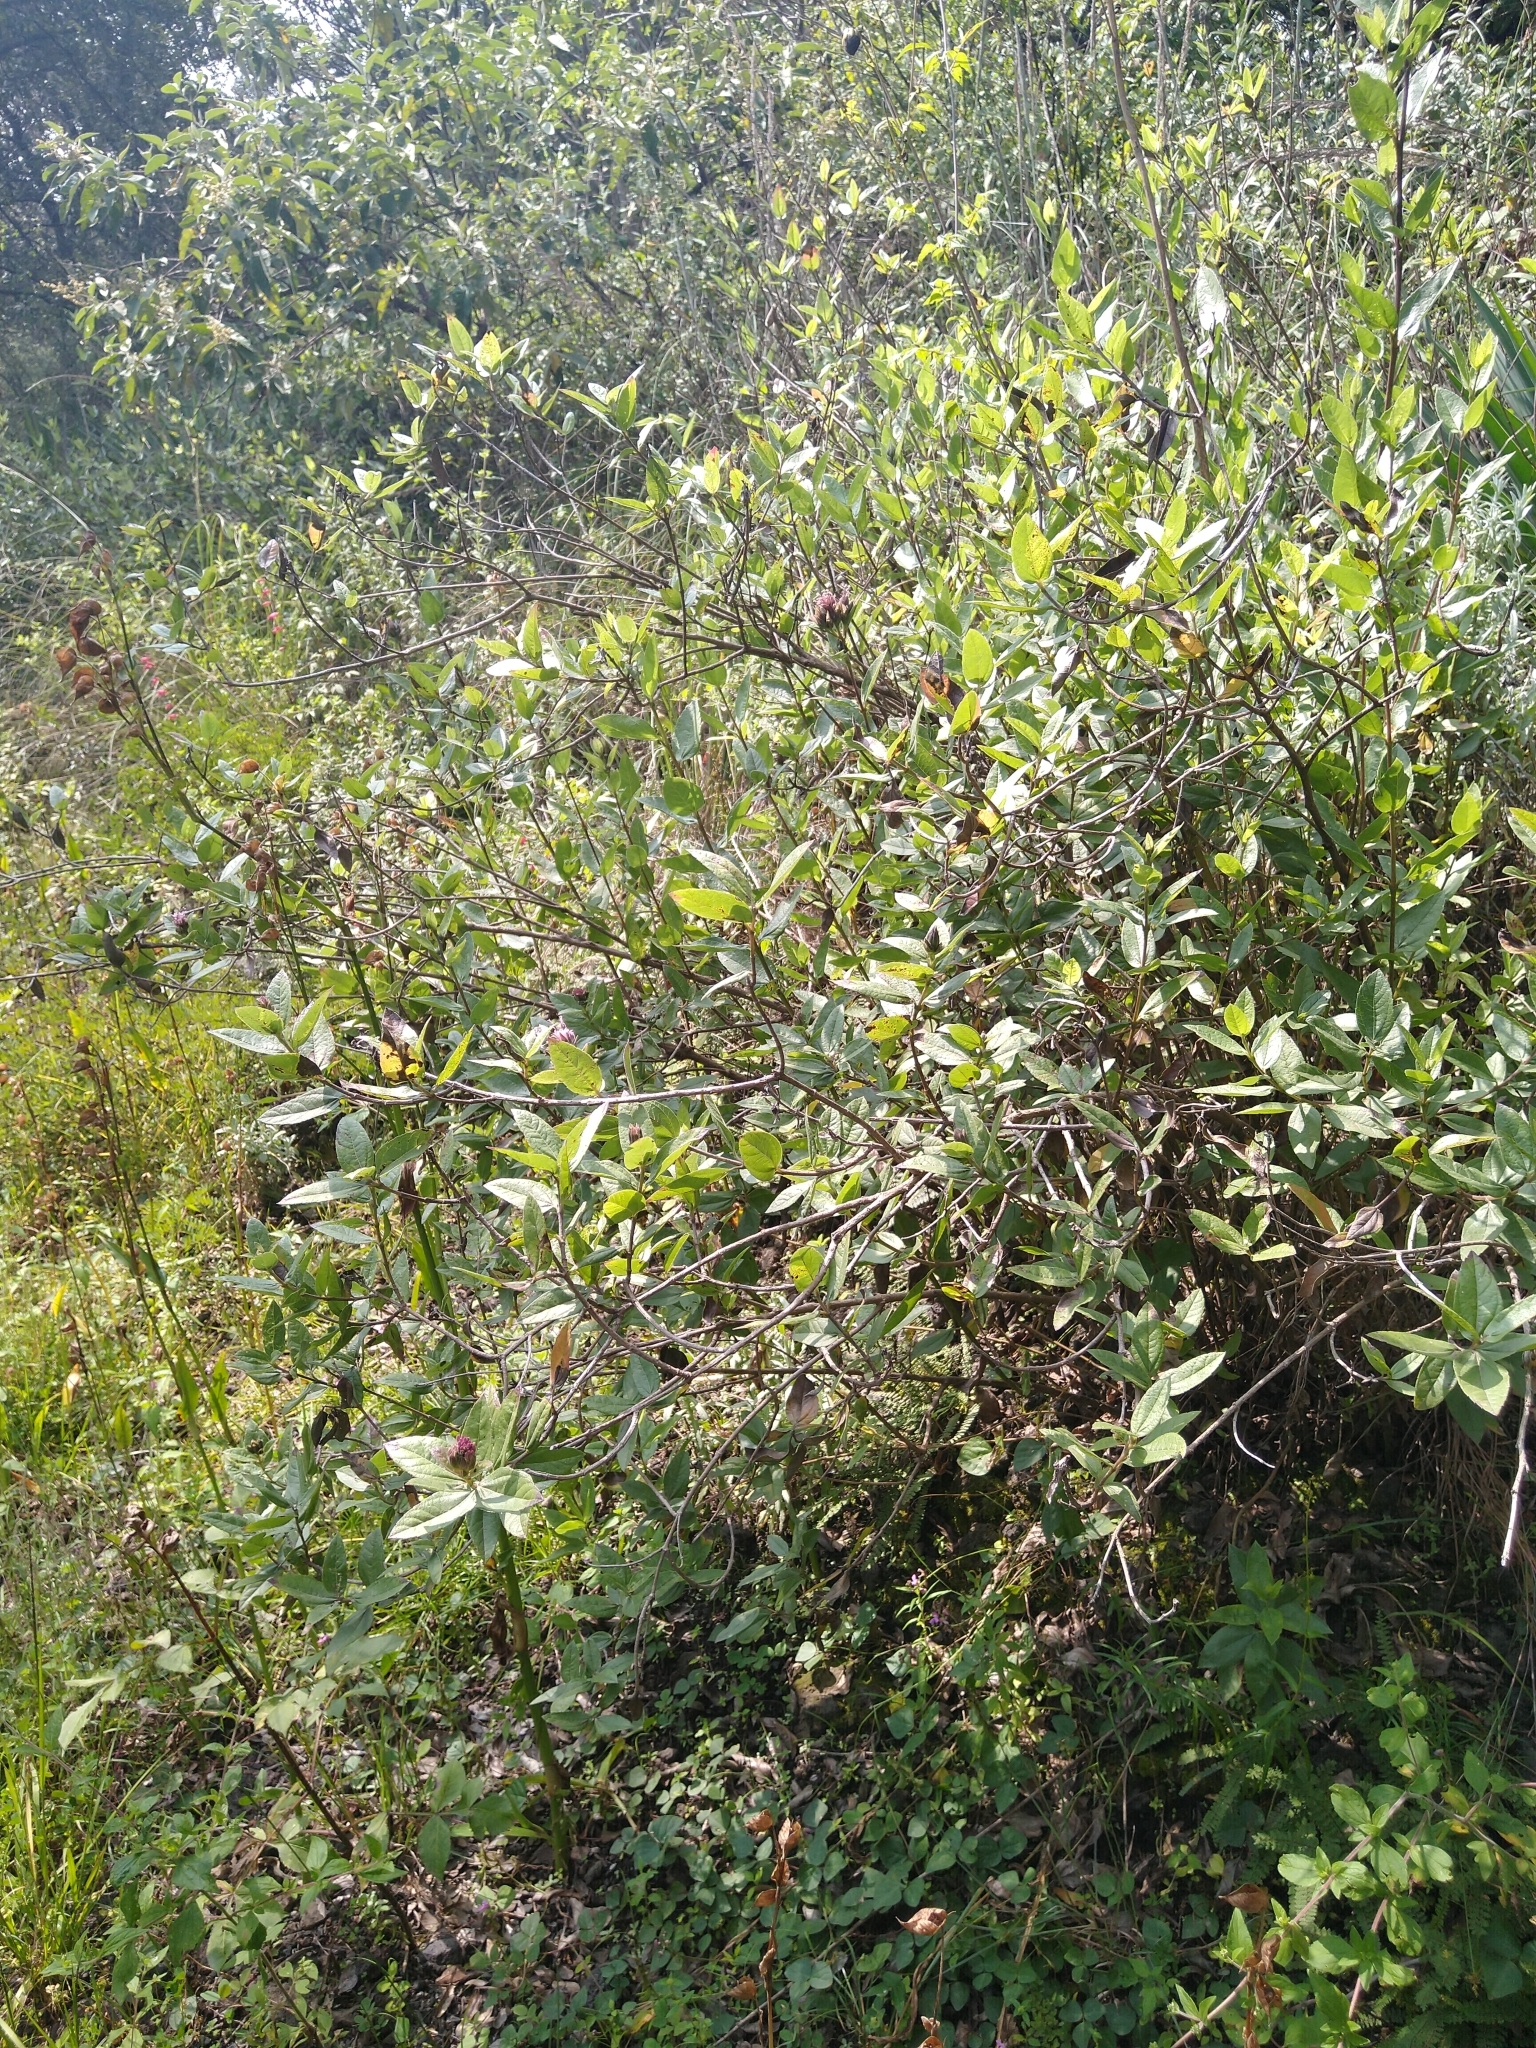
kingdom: Plantae
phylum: Tracheophyta
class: Magnoliopsida
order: Asterales
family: Asteraceae
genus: Lagascea
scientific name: Lagascea rigida
